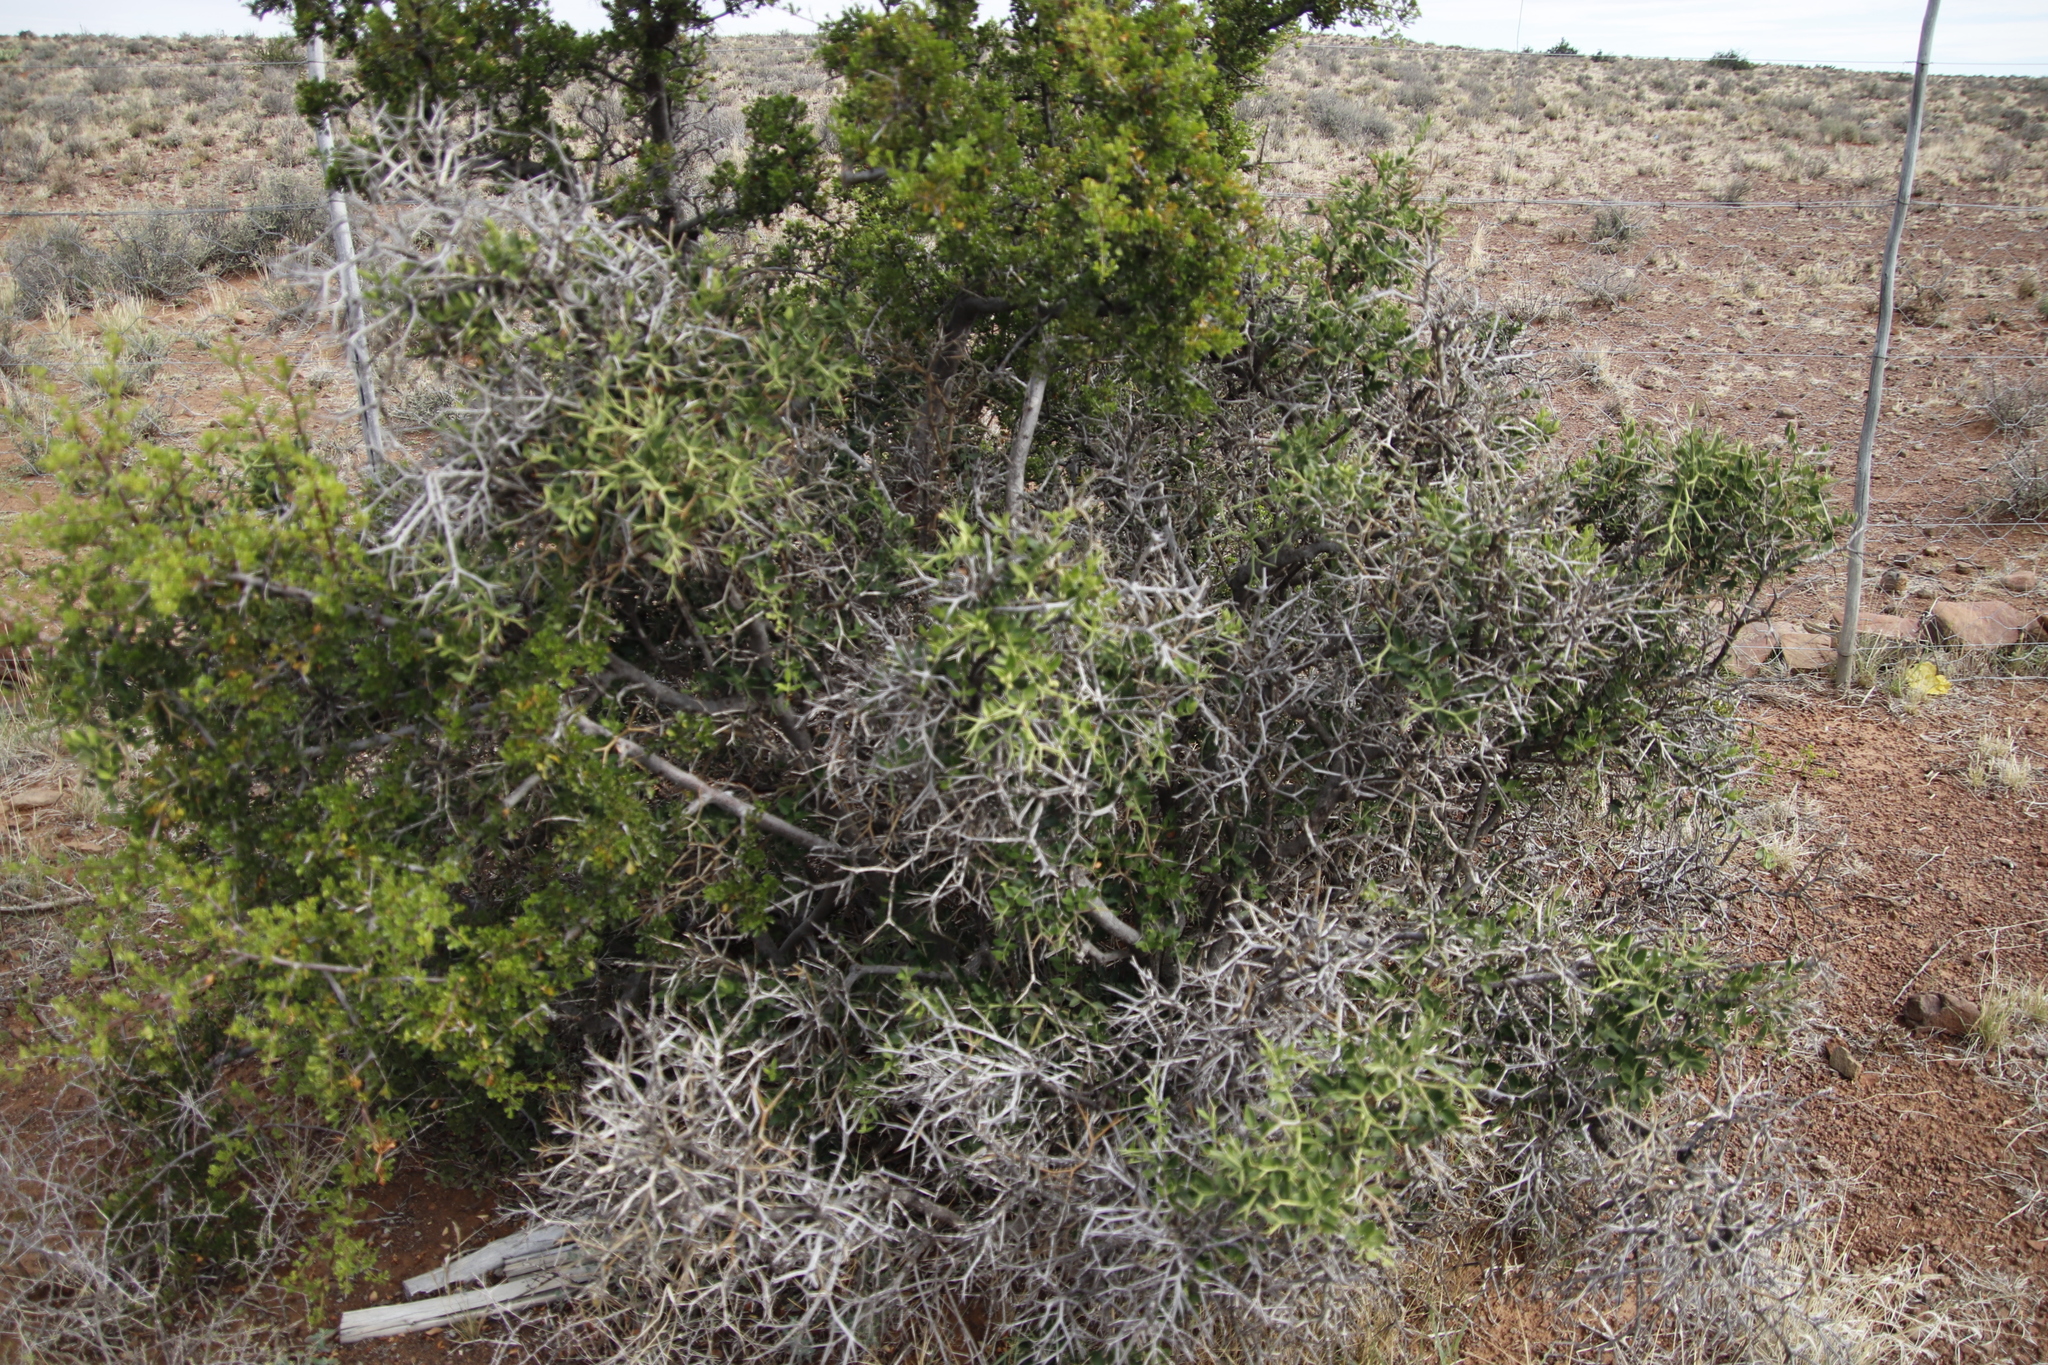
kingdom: Plantae
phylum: Tracheophyta
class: Magnoliopsida
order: Gentianales
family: Apocynaceae
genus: Carissa
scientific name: Carissa haematocarpa
